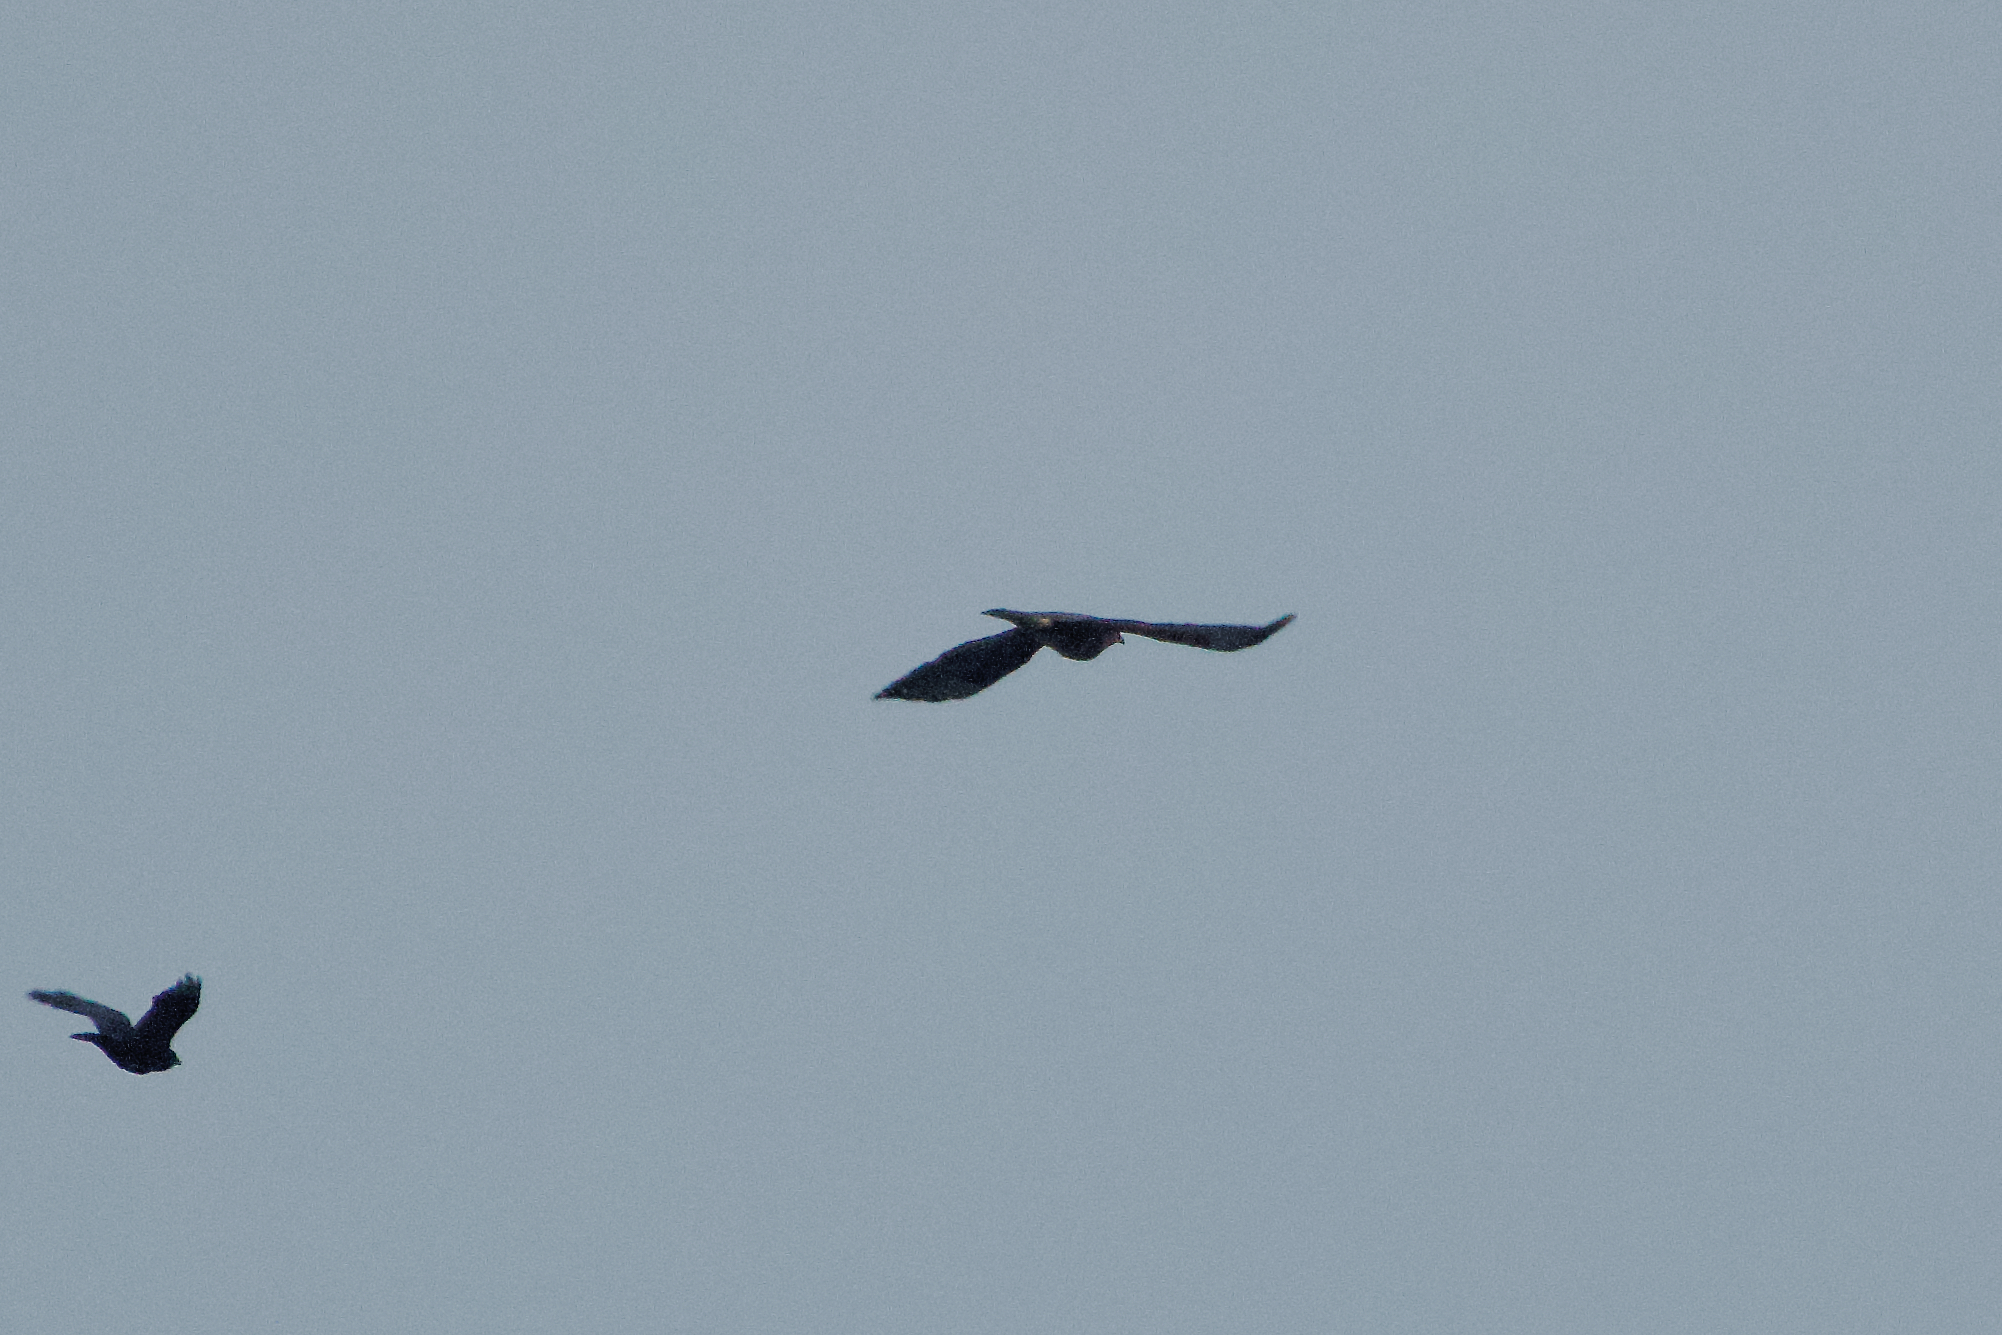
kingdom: Animalia
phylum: Chordata
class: Aves
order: Accipitriformes
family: Accipitridae
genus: Buteo
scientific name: Buteo buteo
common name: Common buzzard
